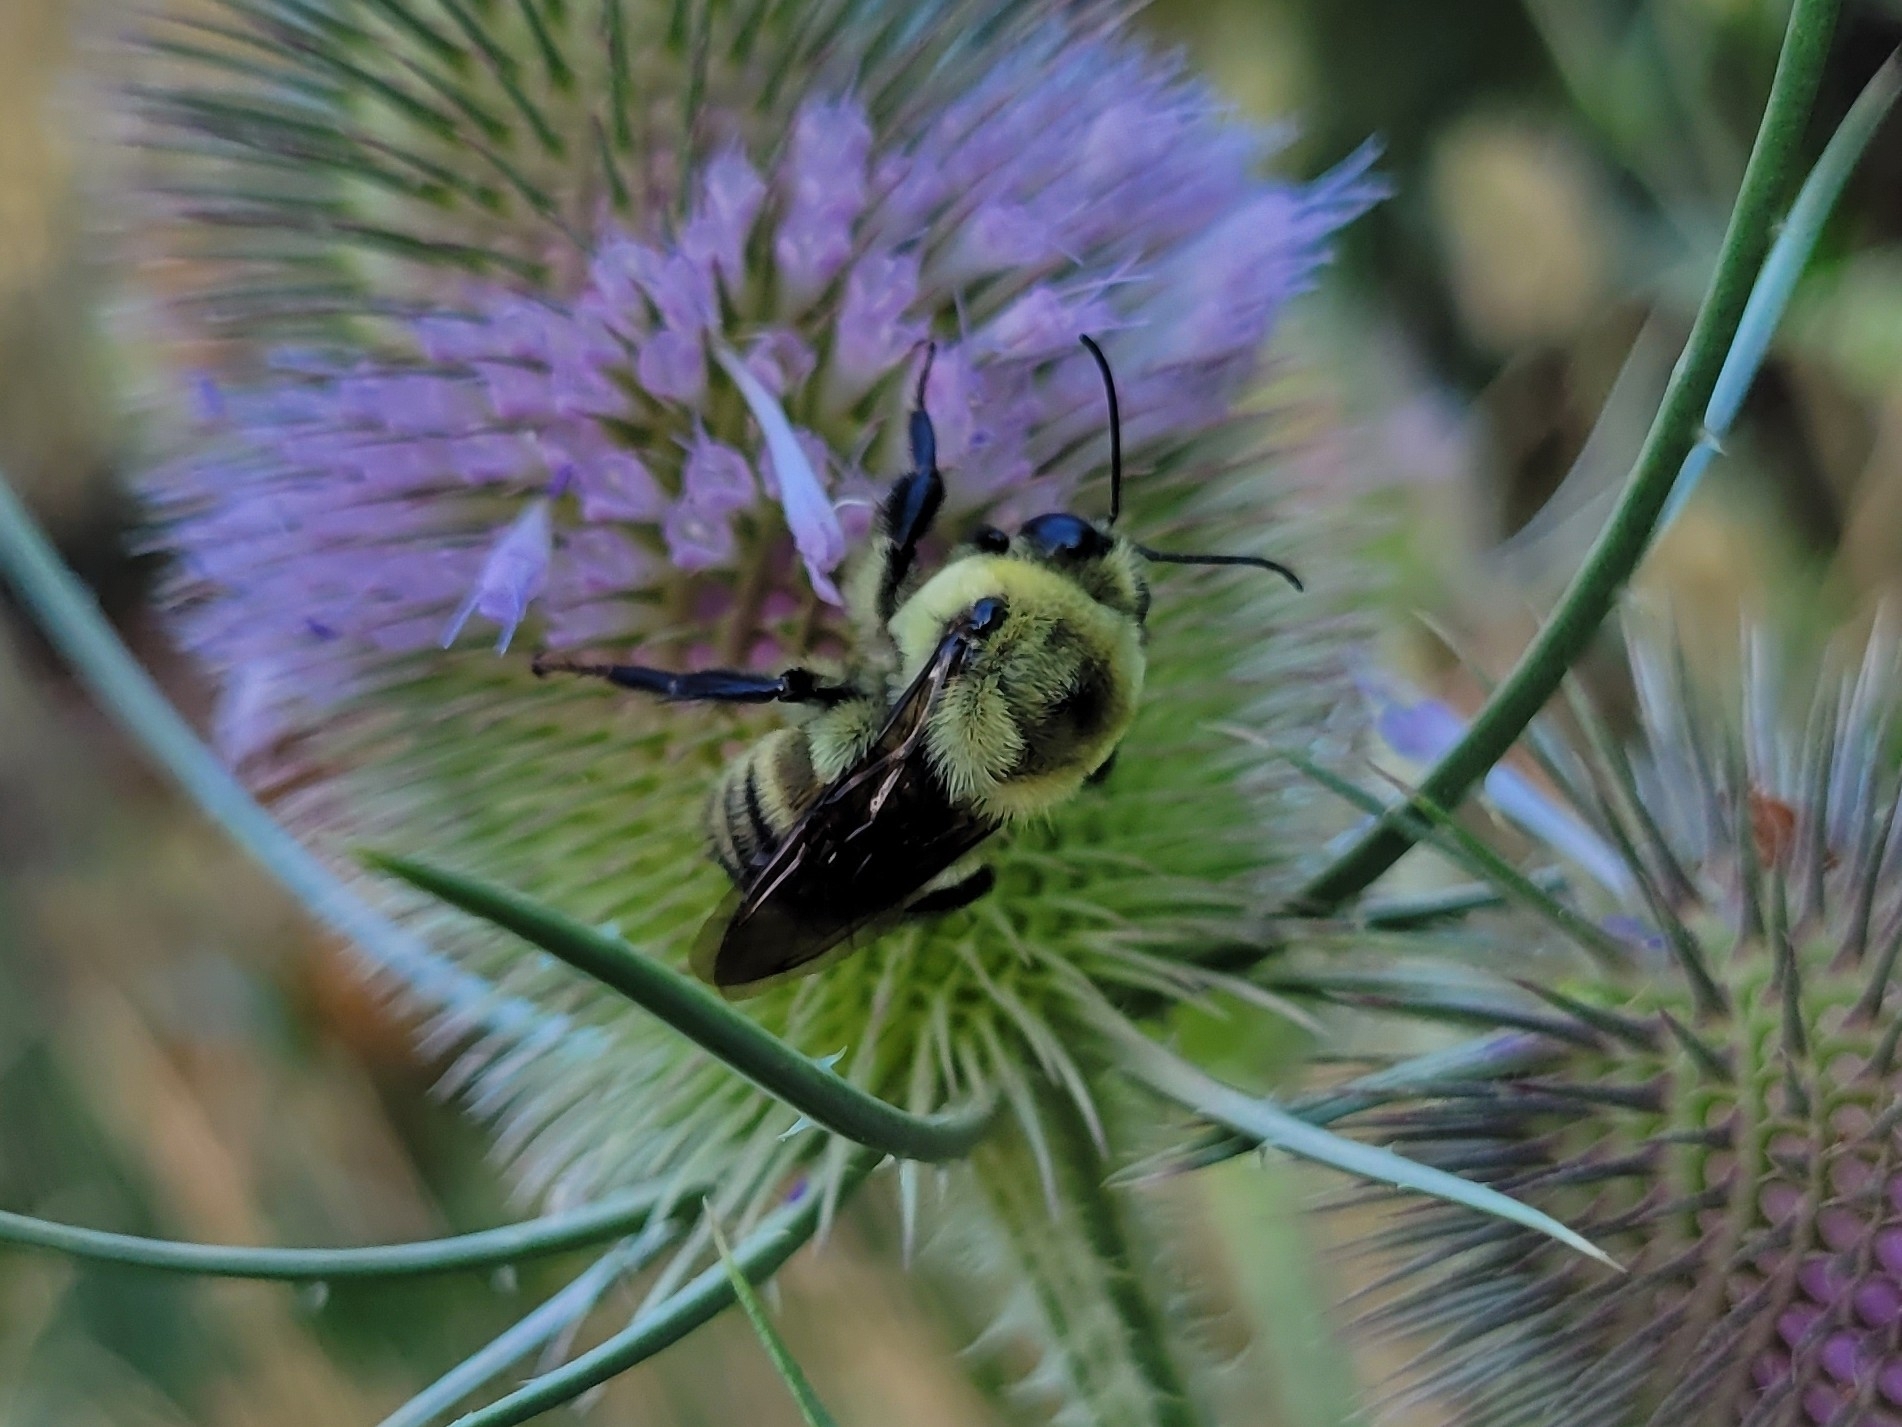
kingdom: Animalia
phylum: Arthropoda
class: Insecta
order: Hymenoptera
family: Apidae
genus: Bombus
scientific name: Bombus griseocollis
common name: Brown-belted bumble bee
